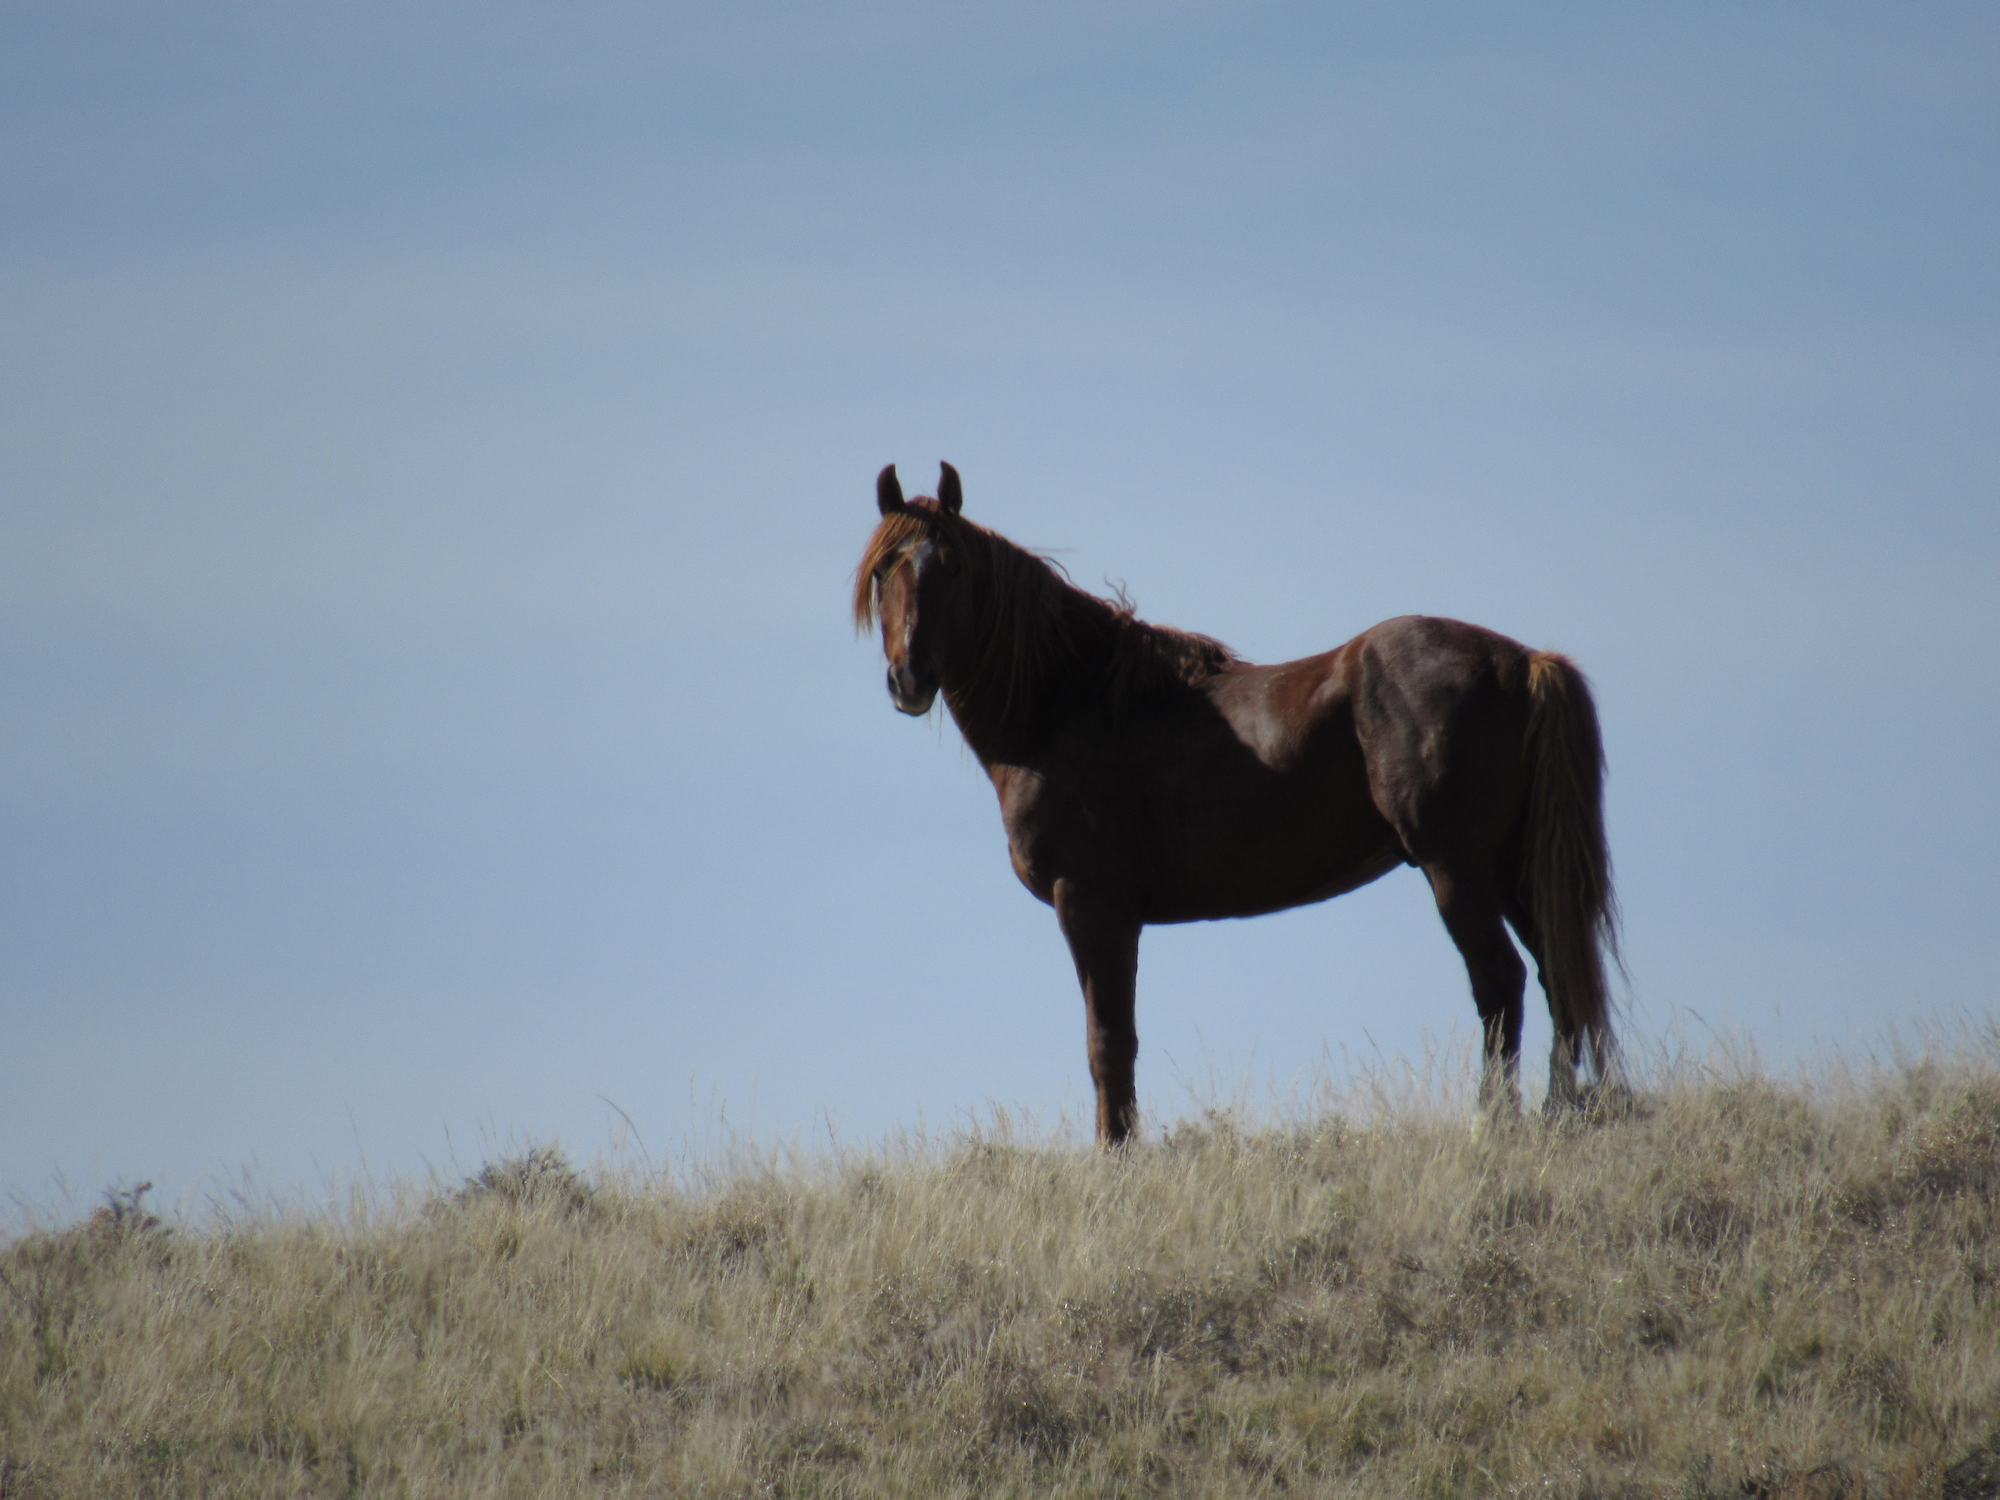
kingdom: Animalia
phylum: Chordata
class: Mammalia
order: Perissodactyla
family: Equidae
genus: Equus
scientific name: Equus caballus
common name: Horse
